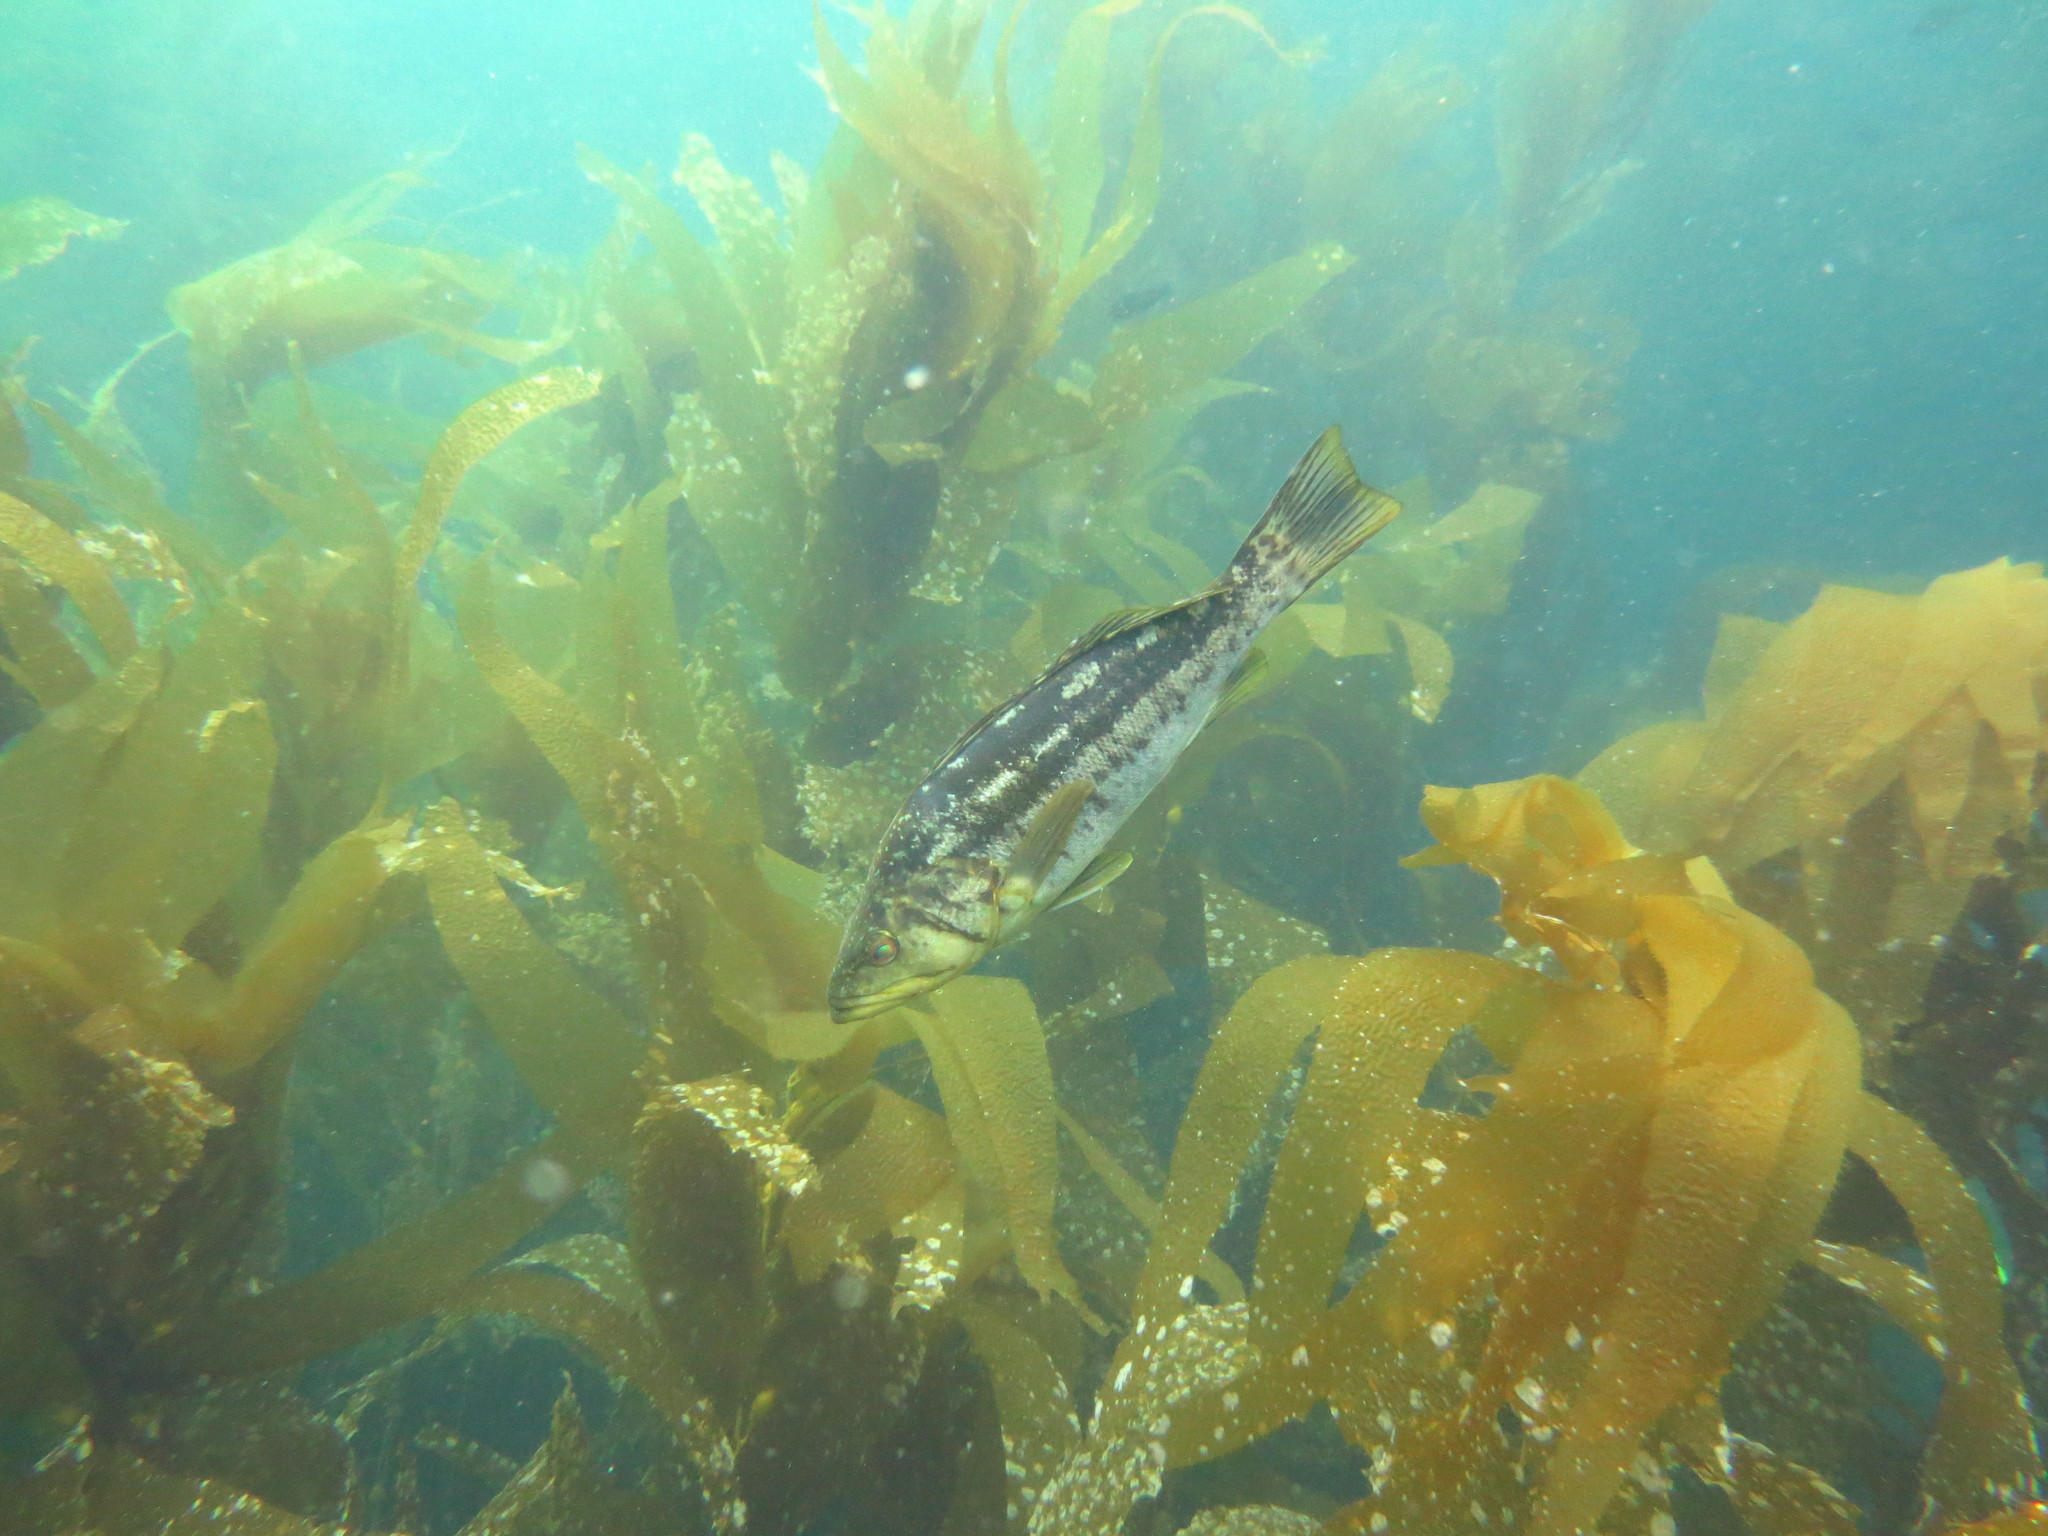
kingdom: Animalia
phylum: Chordata
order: Perciformes
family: Serranidae
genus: Paralabrax
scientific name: Paralabrax clathratus
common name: Kelp bass
